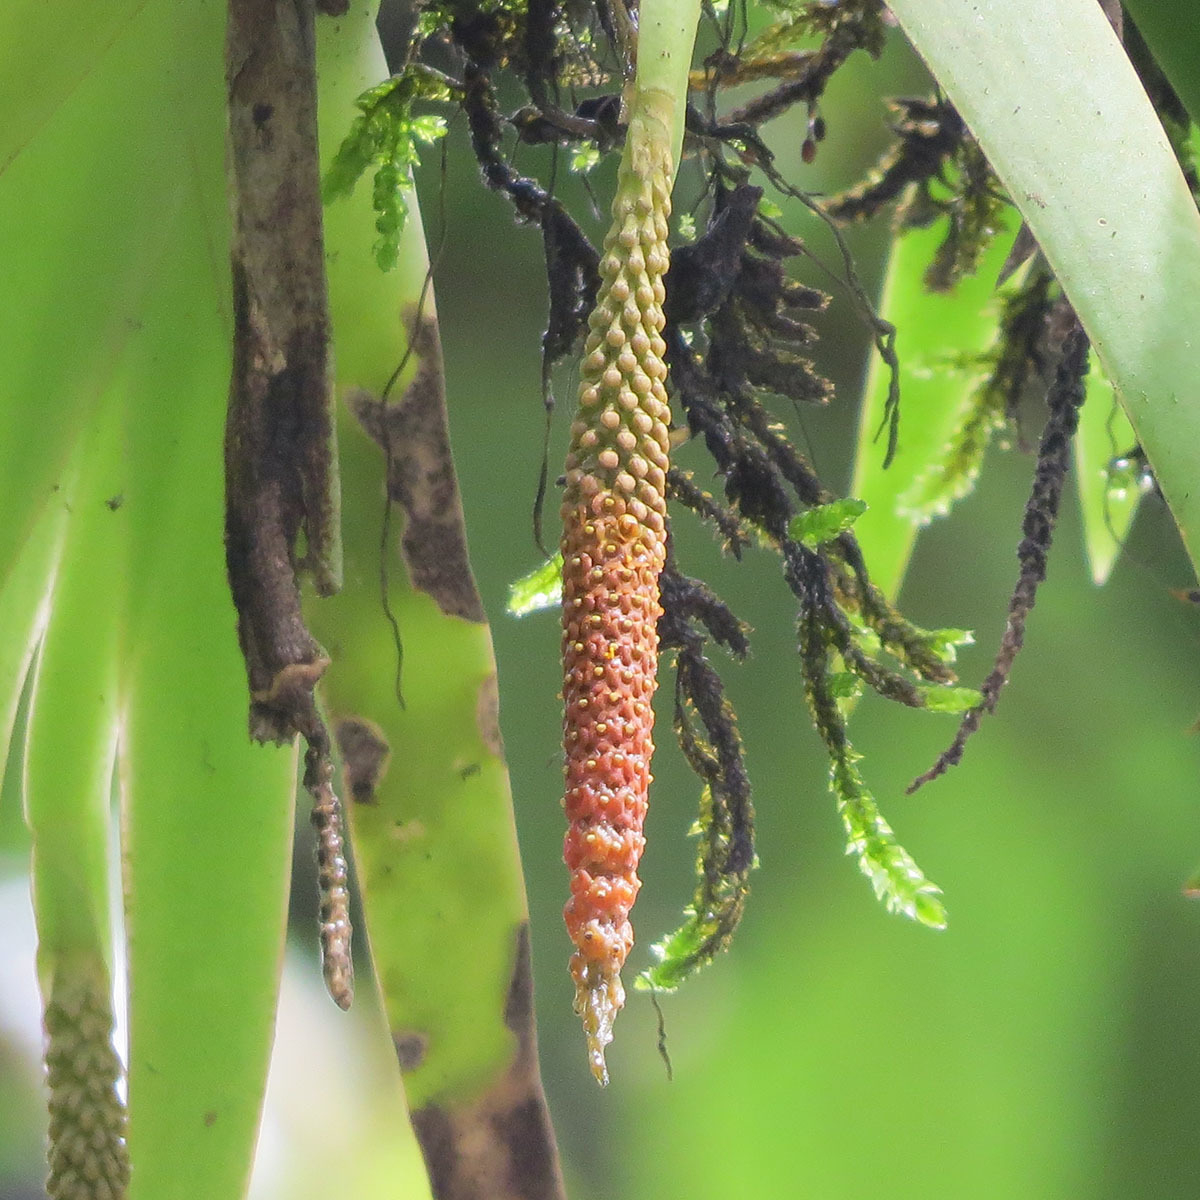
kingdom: Plantae
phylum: Tracheophyta
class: Liliopsida
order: Asparagales
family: Orchidaceae
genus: Oberonia
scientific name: Oberonia brunoniana
